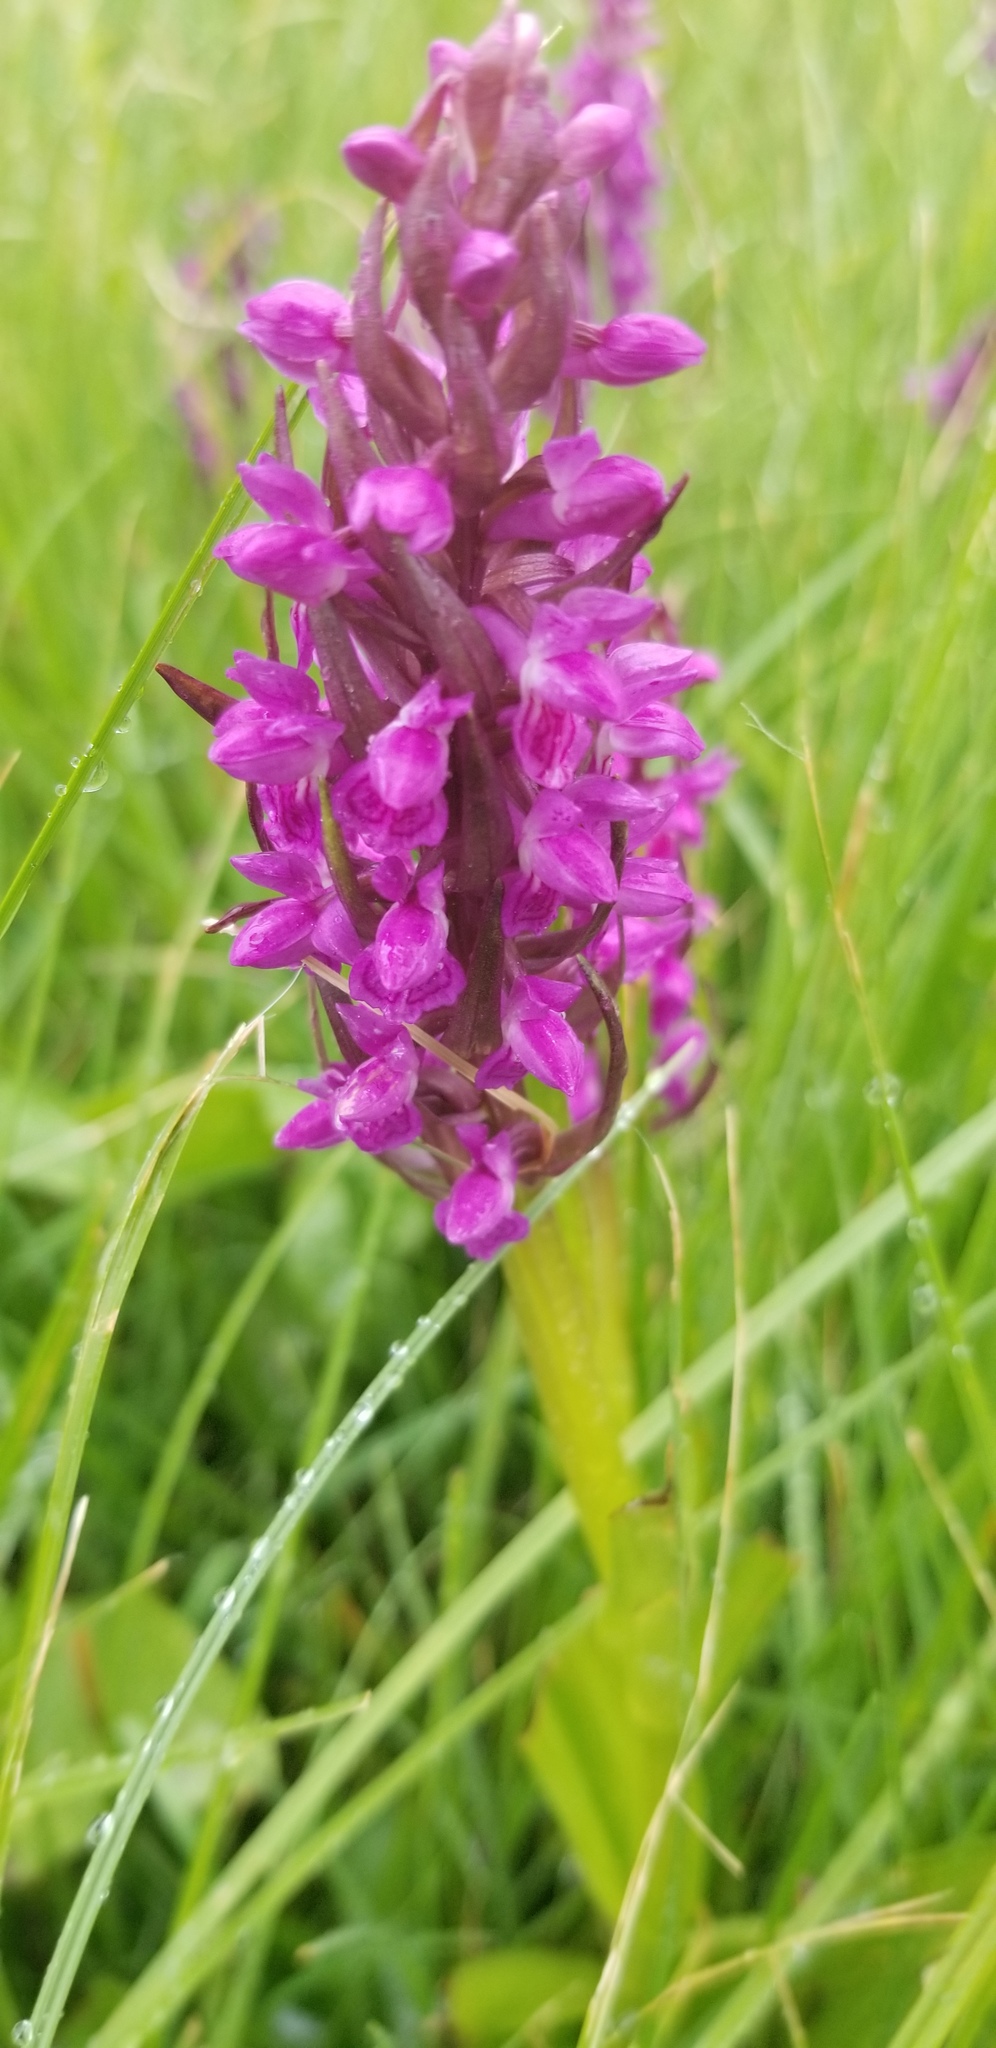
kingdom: Plantae
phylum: Tracheophyta
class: Liliopsida
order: Asparagales
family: Orchidaceae
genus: Dactylorhiza
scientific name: Dactylorhiza incarnata
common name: Early marsh-orchid
